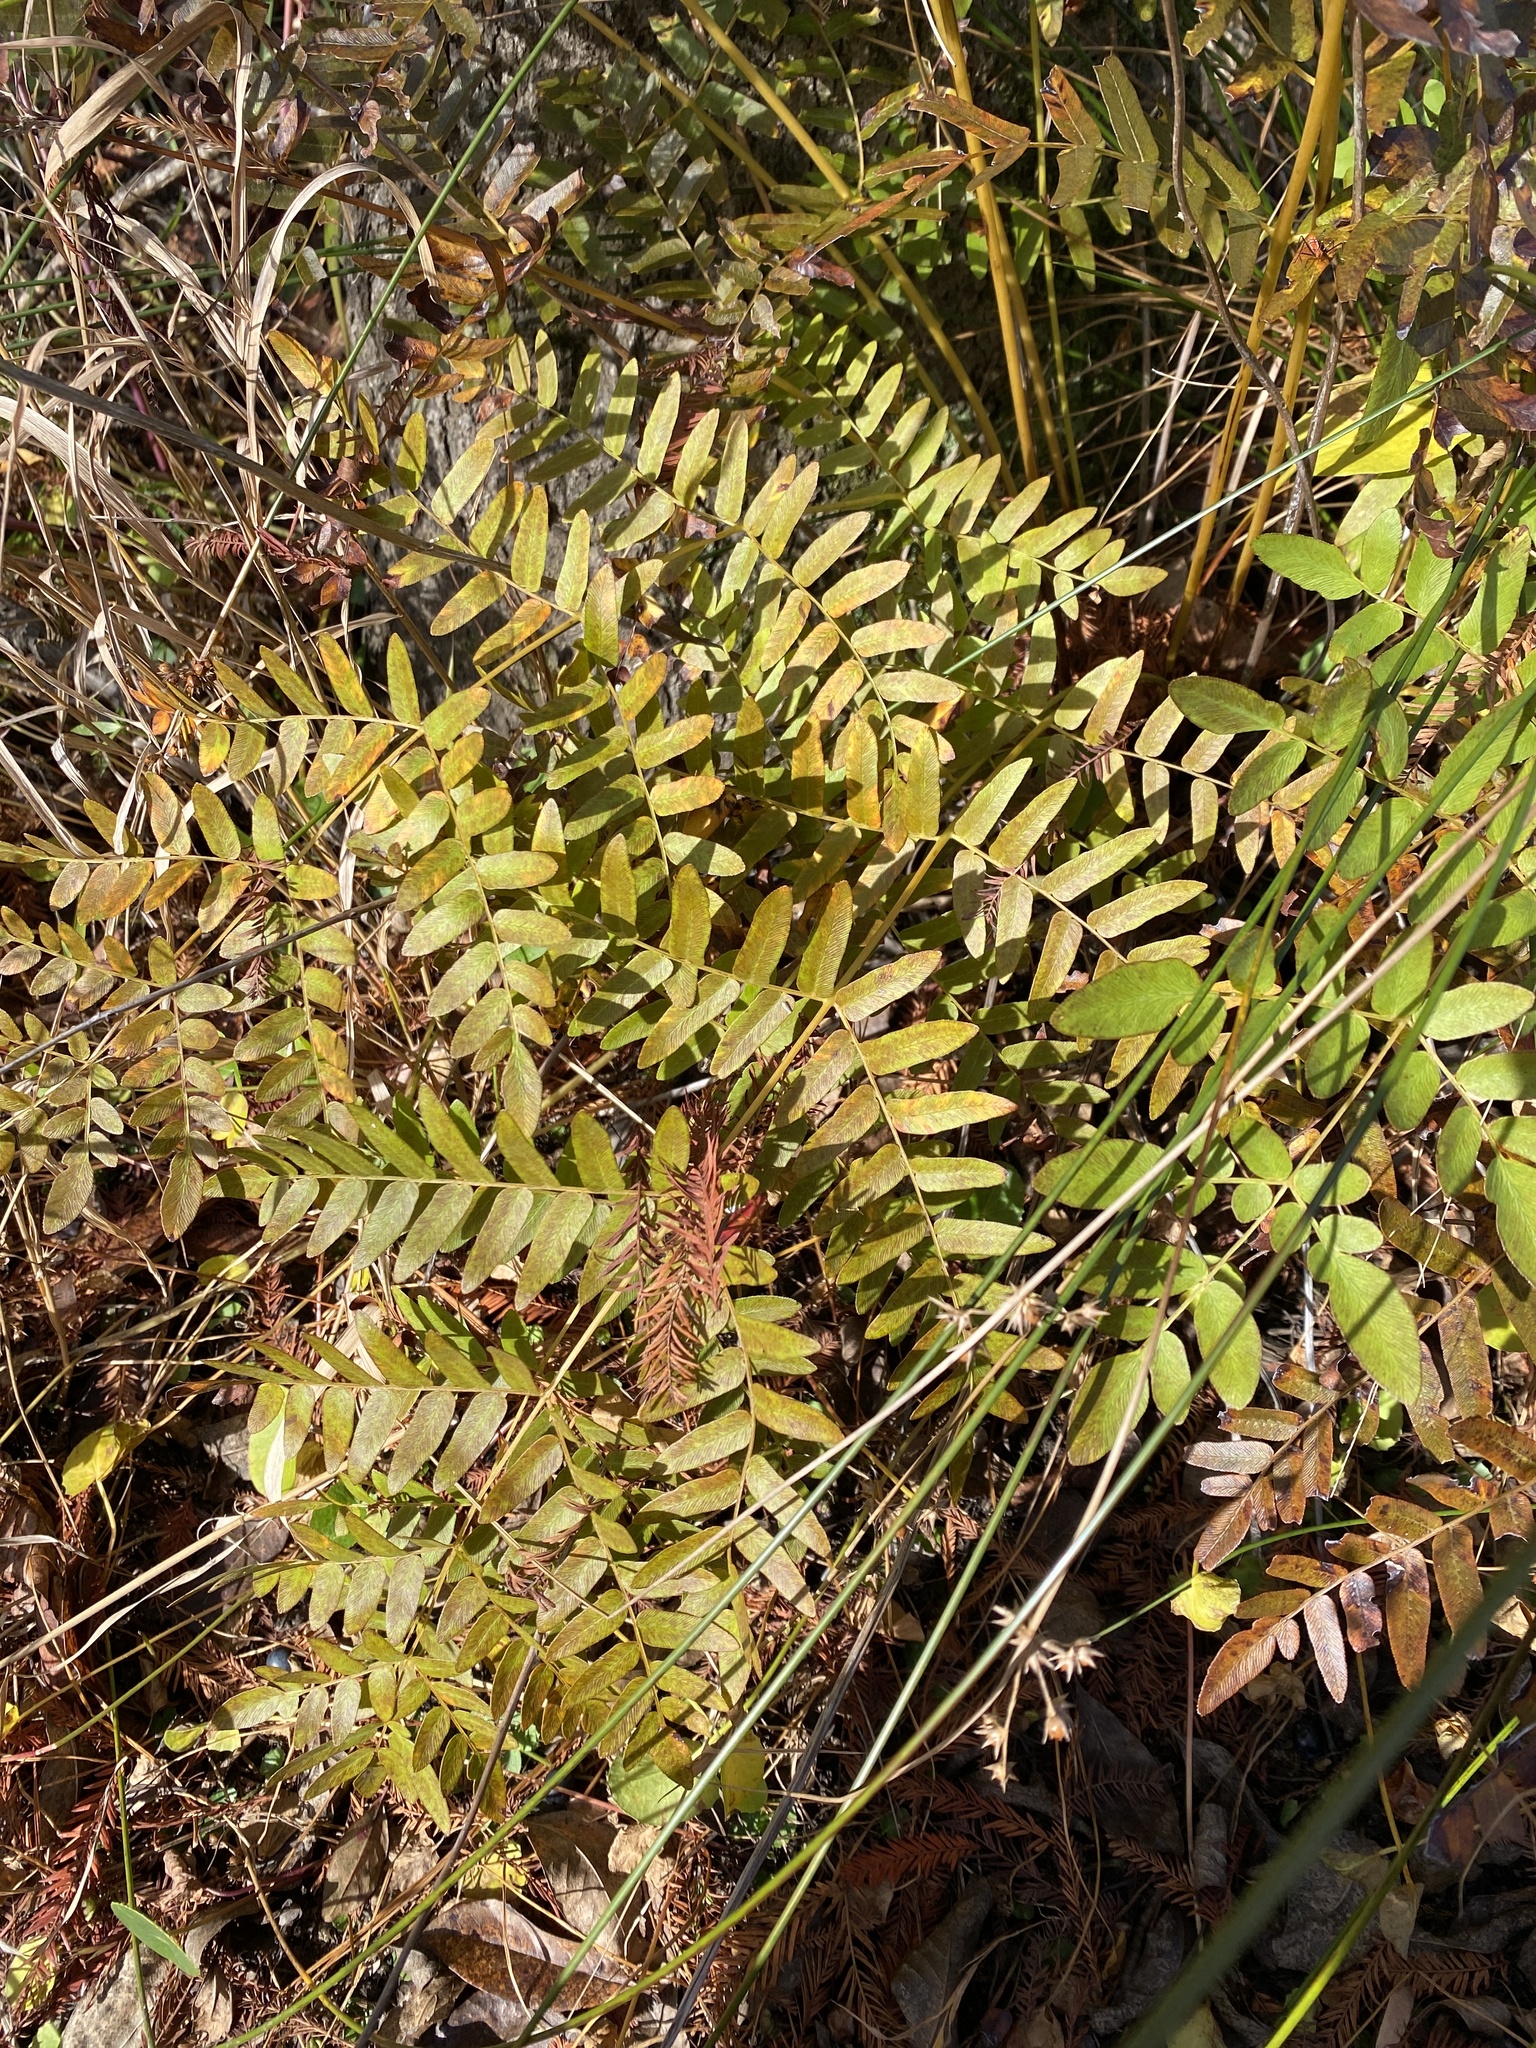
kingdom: Plantae
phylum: Tracheophyta
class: Polypodiopsida
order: Osmundales
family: Osmundaceae
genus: Osmunda
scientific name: Osmunda spectabilis
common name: American royal fern
